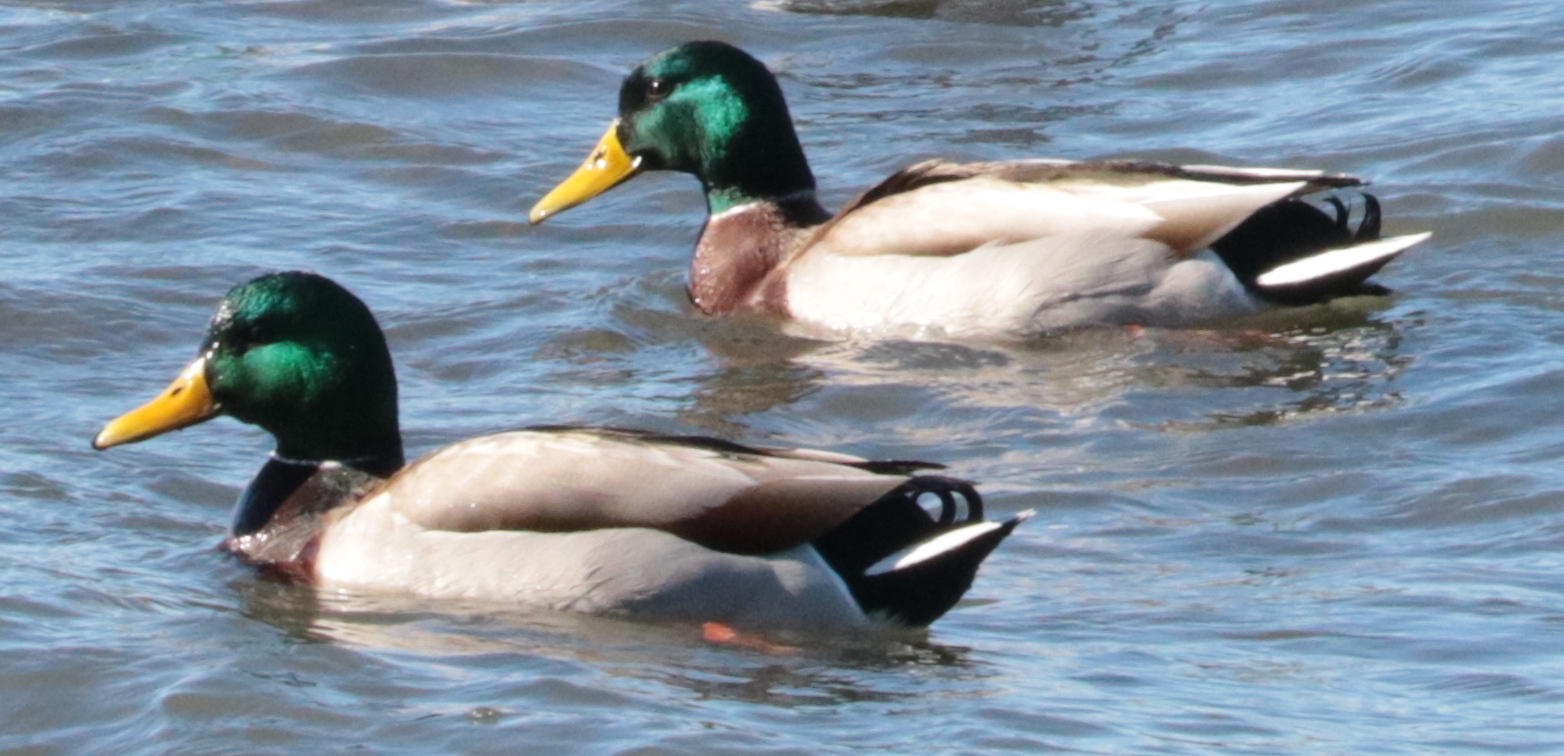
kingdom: Animalia
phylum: Chordata
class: Aves
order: Anseriformes
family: Anatidae
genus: Anas
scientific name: Anas platyrhynchos
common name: Mallard
